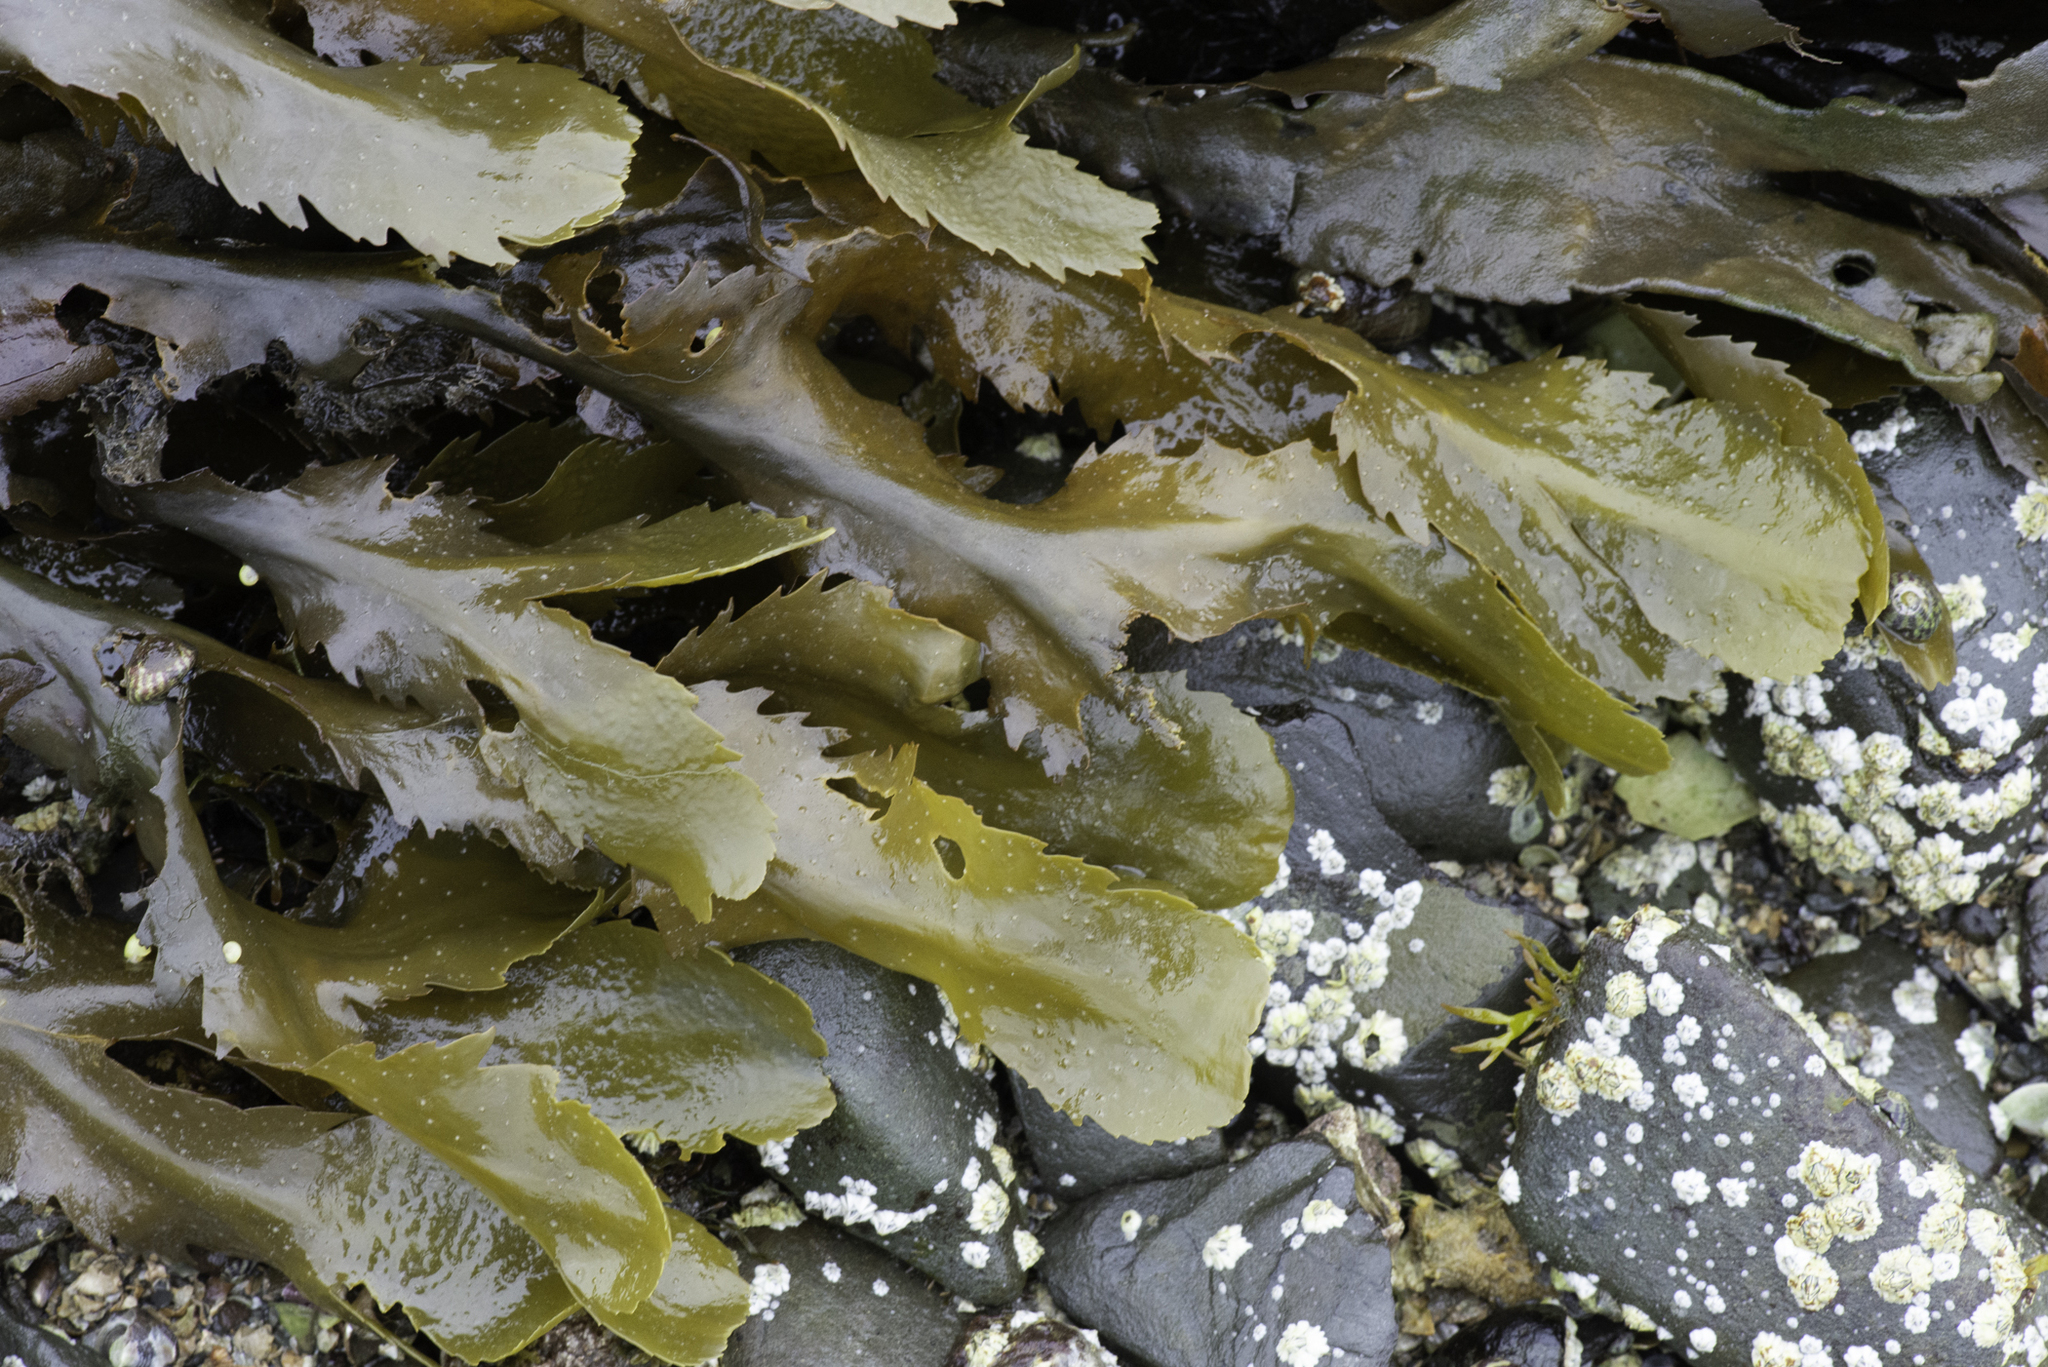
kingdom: Chromista
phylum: Ochrophyta
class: Phaeophyceae
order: Fucales
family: Fucaceae
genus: Fucus
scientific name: Fucus serratus
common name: Toothed wrack
